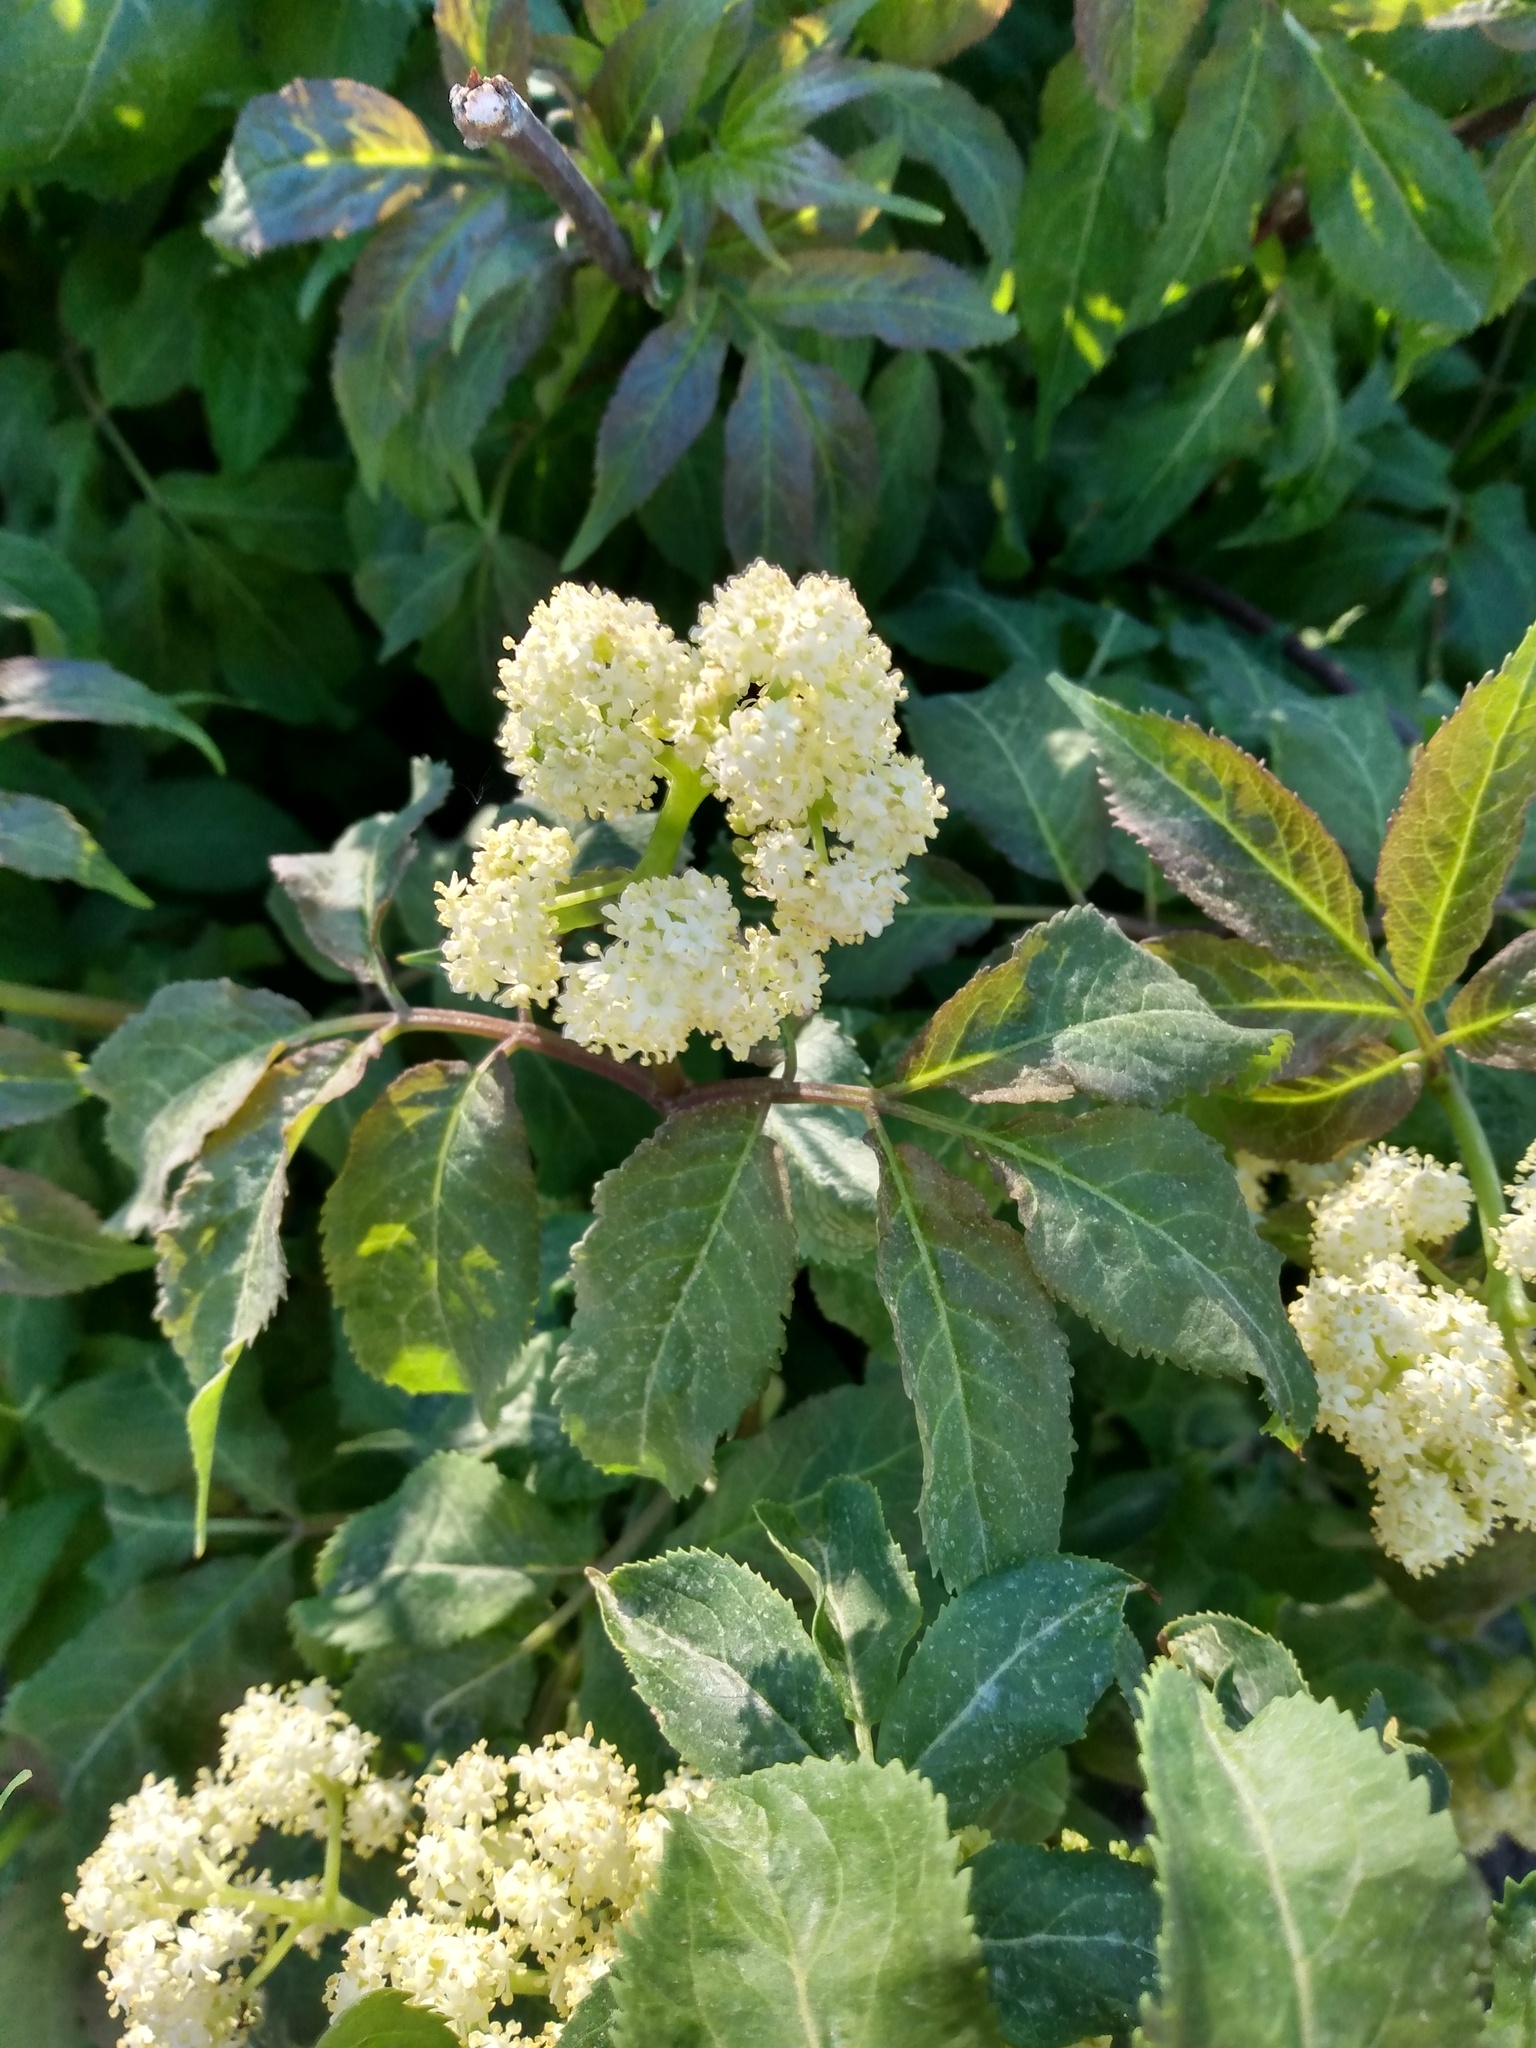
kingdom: Plantae
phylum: Tracheophyta
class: Magnoliopsida
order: Dipsacales
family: Viburnaceae
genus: Sambucus
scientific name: Sambucus racemosa
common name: Red-berried elder
